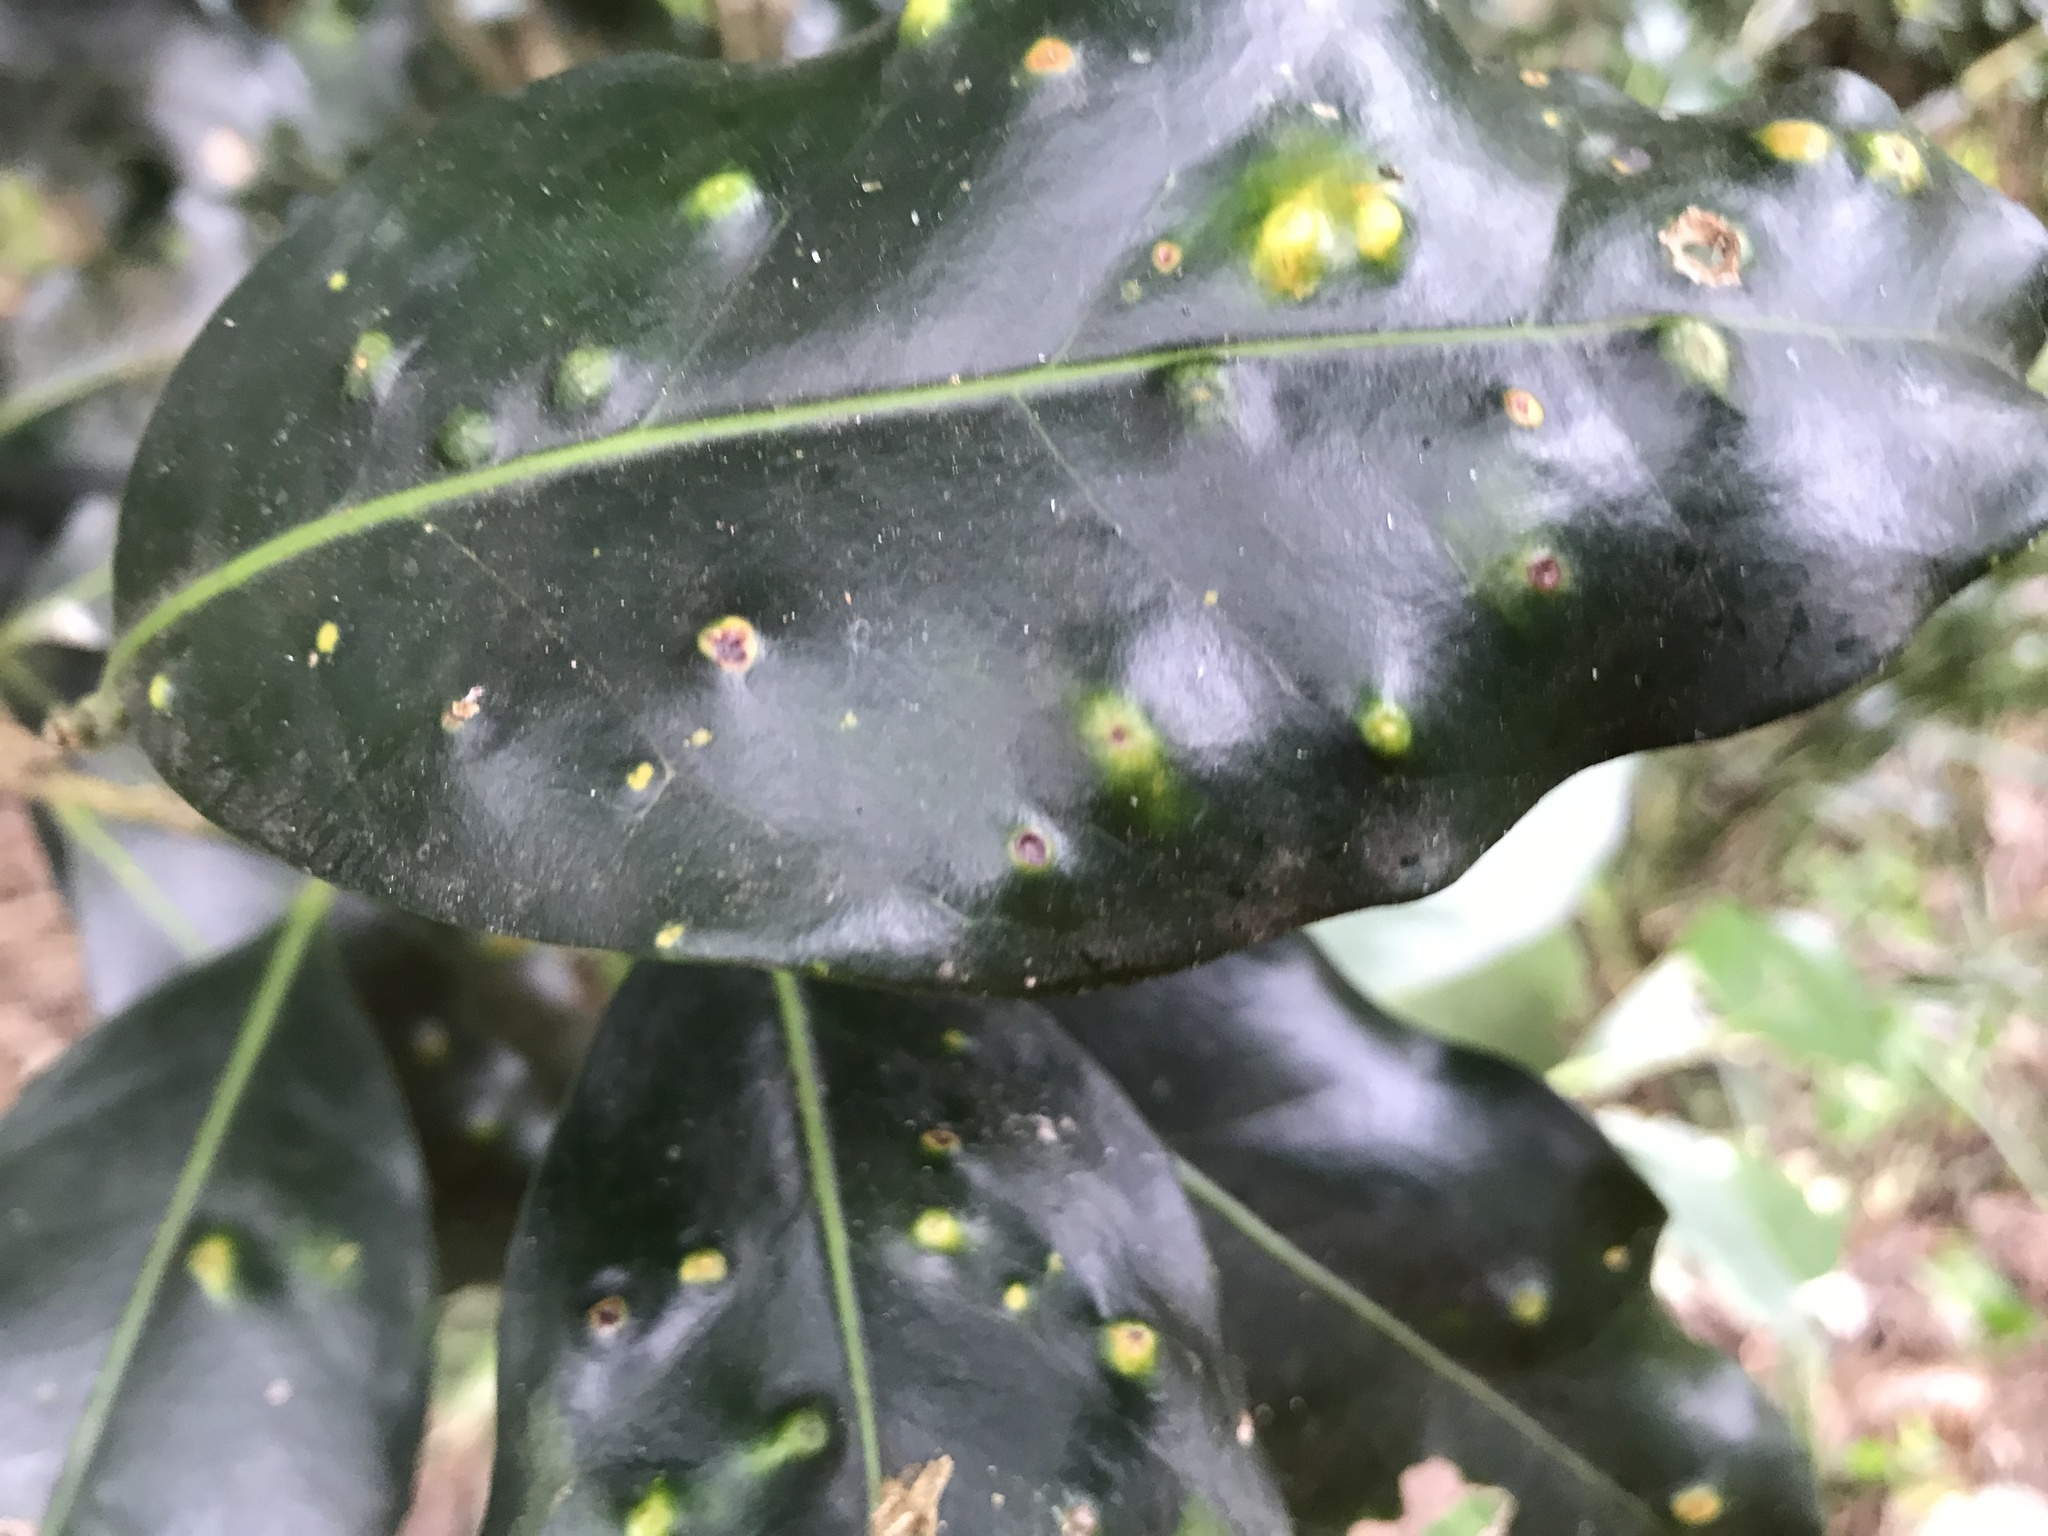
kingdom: Plantae
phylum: Tracheophyta
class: Magnoliopsida
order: Lamiales
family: Oleaceae
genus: Nestegis
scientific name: Nestegis apetala
